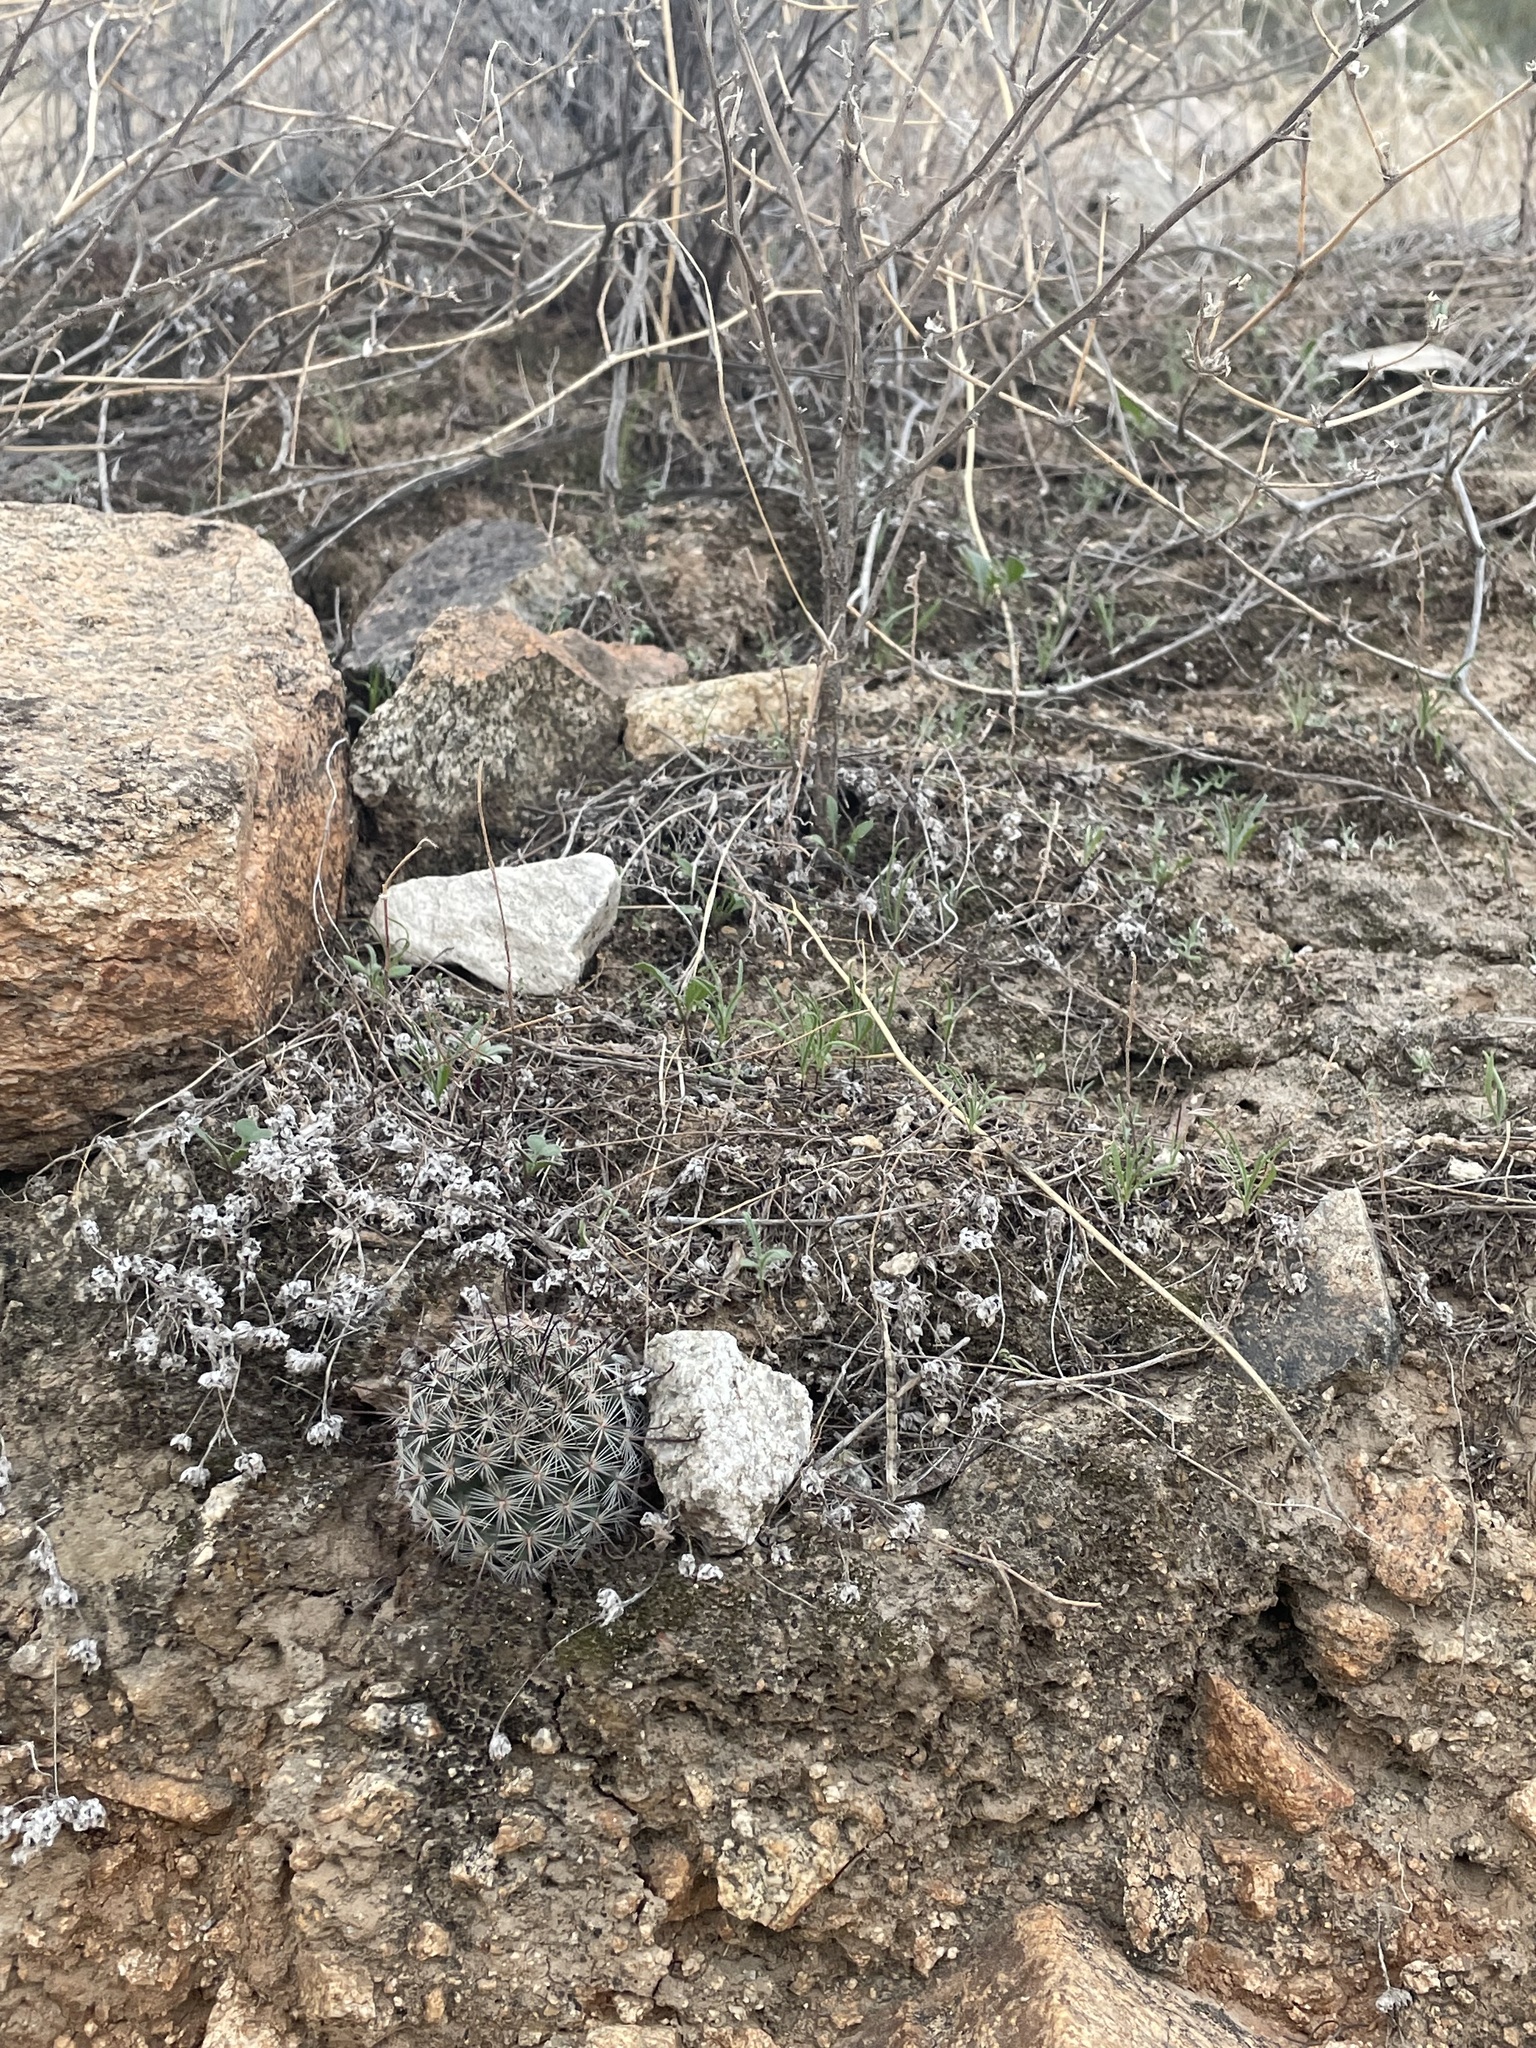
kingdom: Plantae
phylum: Tracheophyta
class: Magnoliopsida
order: Caryophyllales
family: Cactaceae
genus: Cochemiea
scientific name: Cochemiea grahamii
